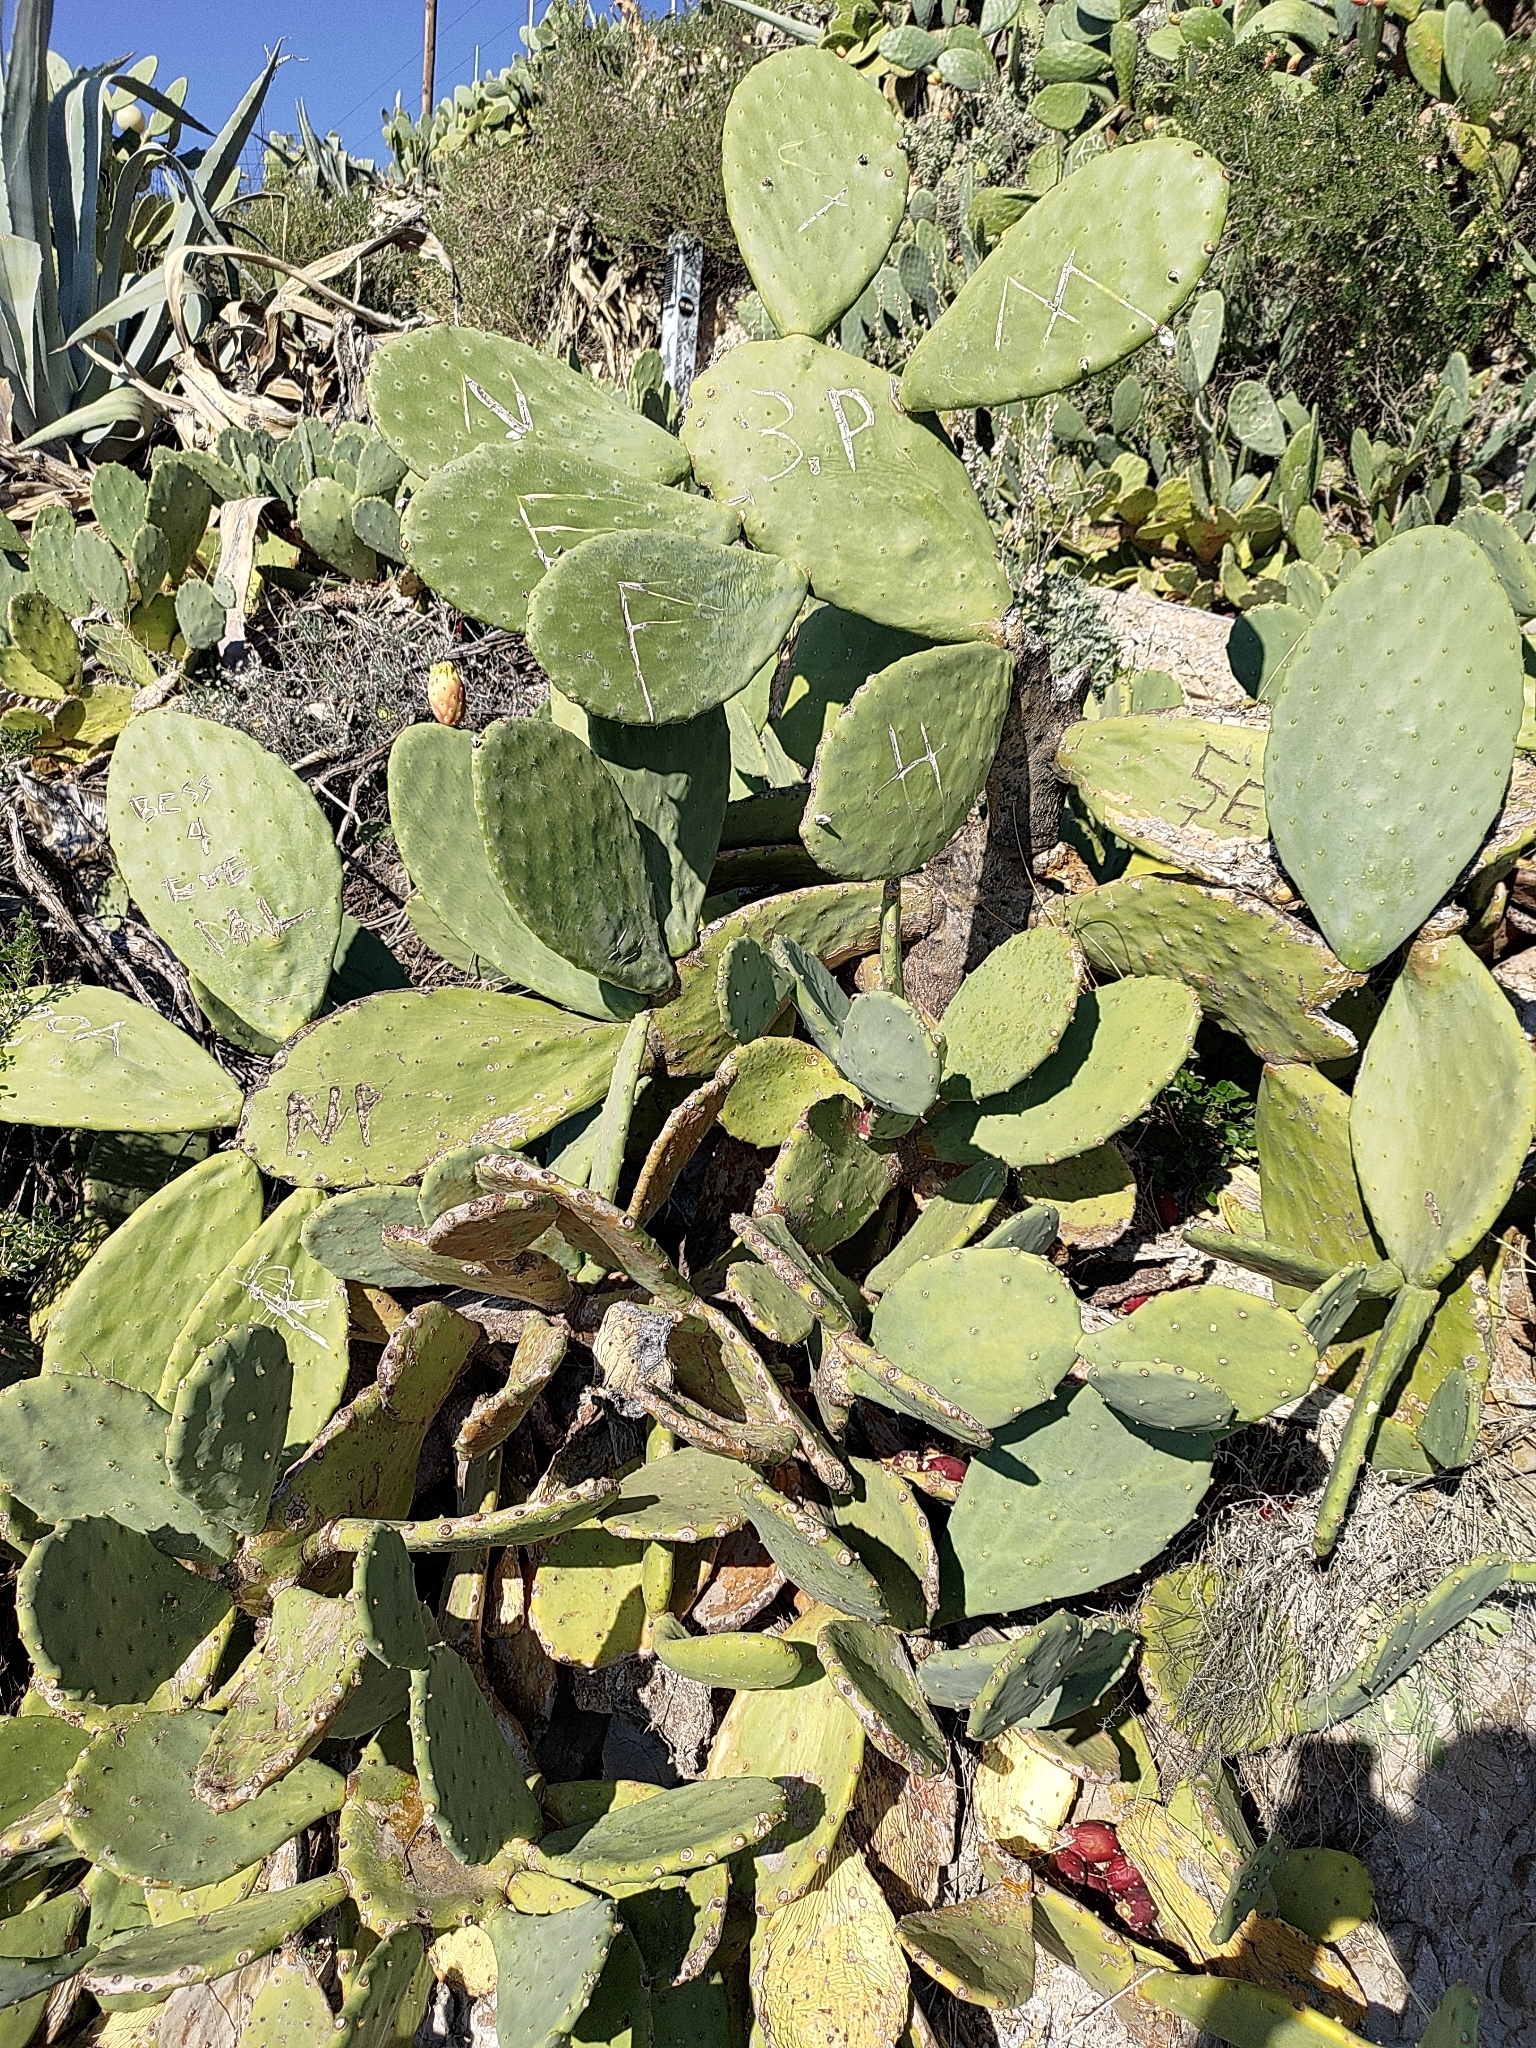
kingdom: Plantae
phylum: Tracheophyta
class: Magnoliopsida
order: Caryophyllales
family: Cactaceae
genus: Opuntia
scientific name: Opuntia ficus-indica
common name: Barbary fig
